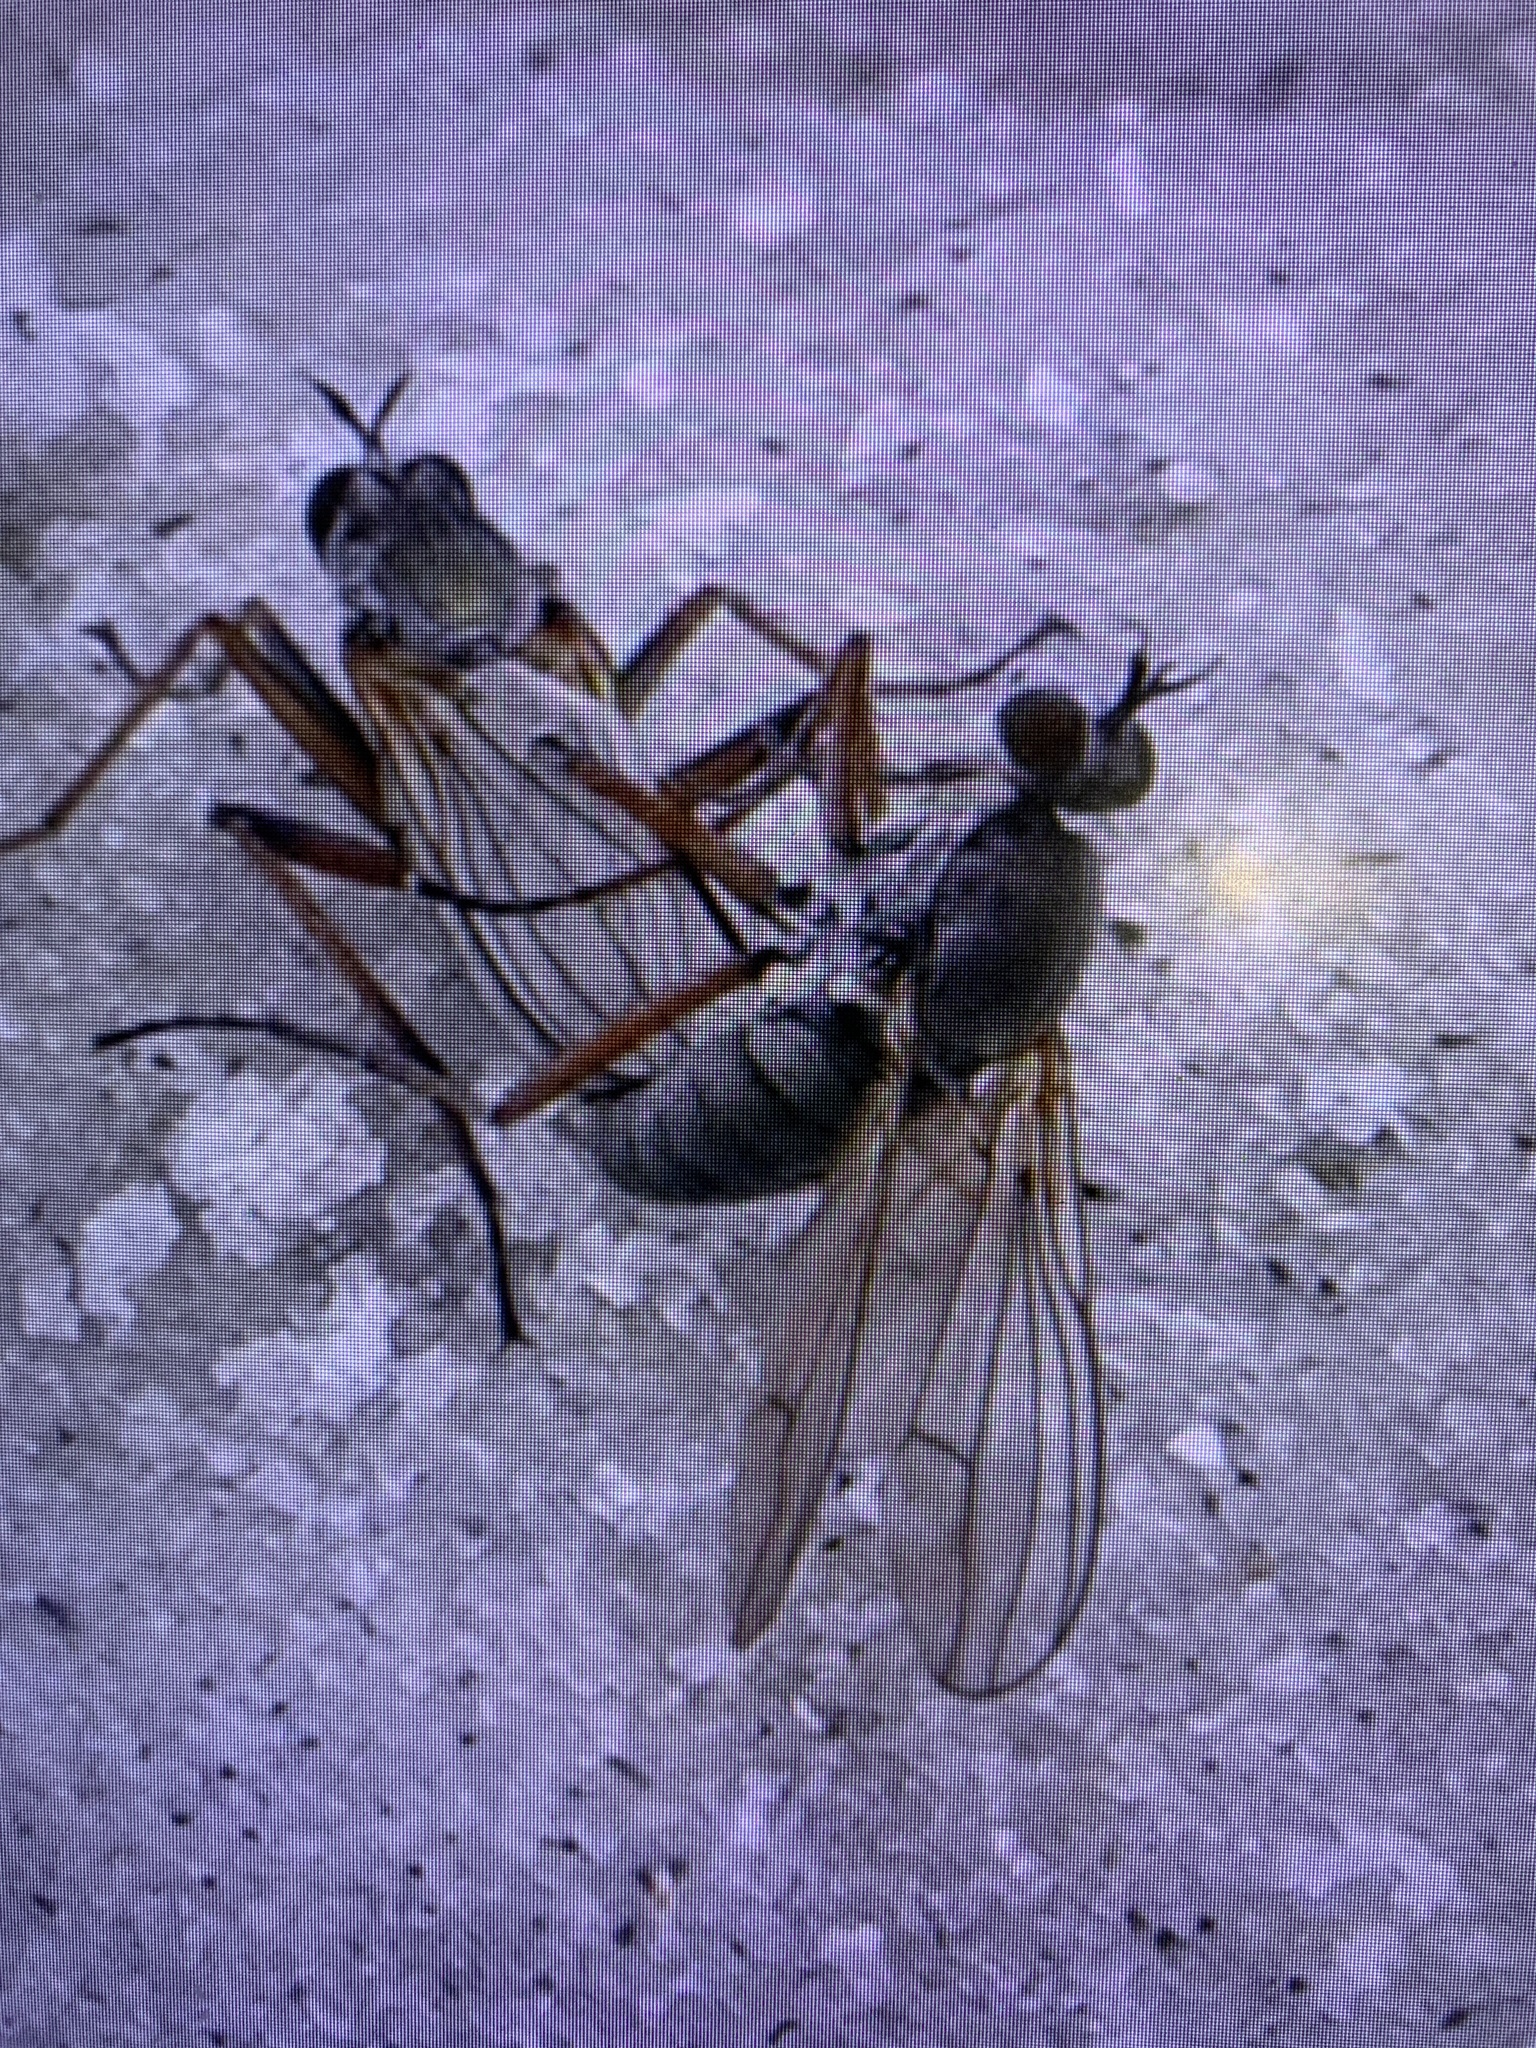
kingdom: Animalia
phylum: Arthropoda
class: Insecta
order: Diptera
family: Dolichopodidae
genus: Hypocharassus
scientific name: Hypocharassus pruinosus
